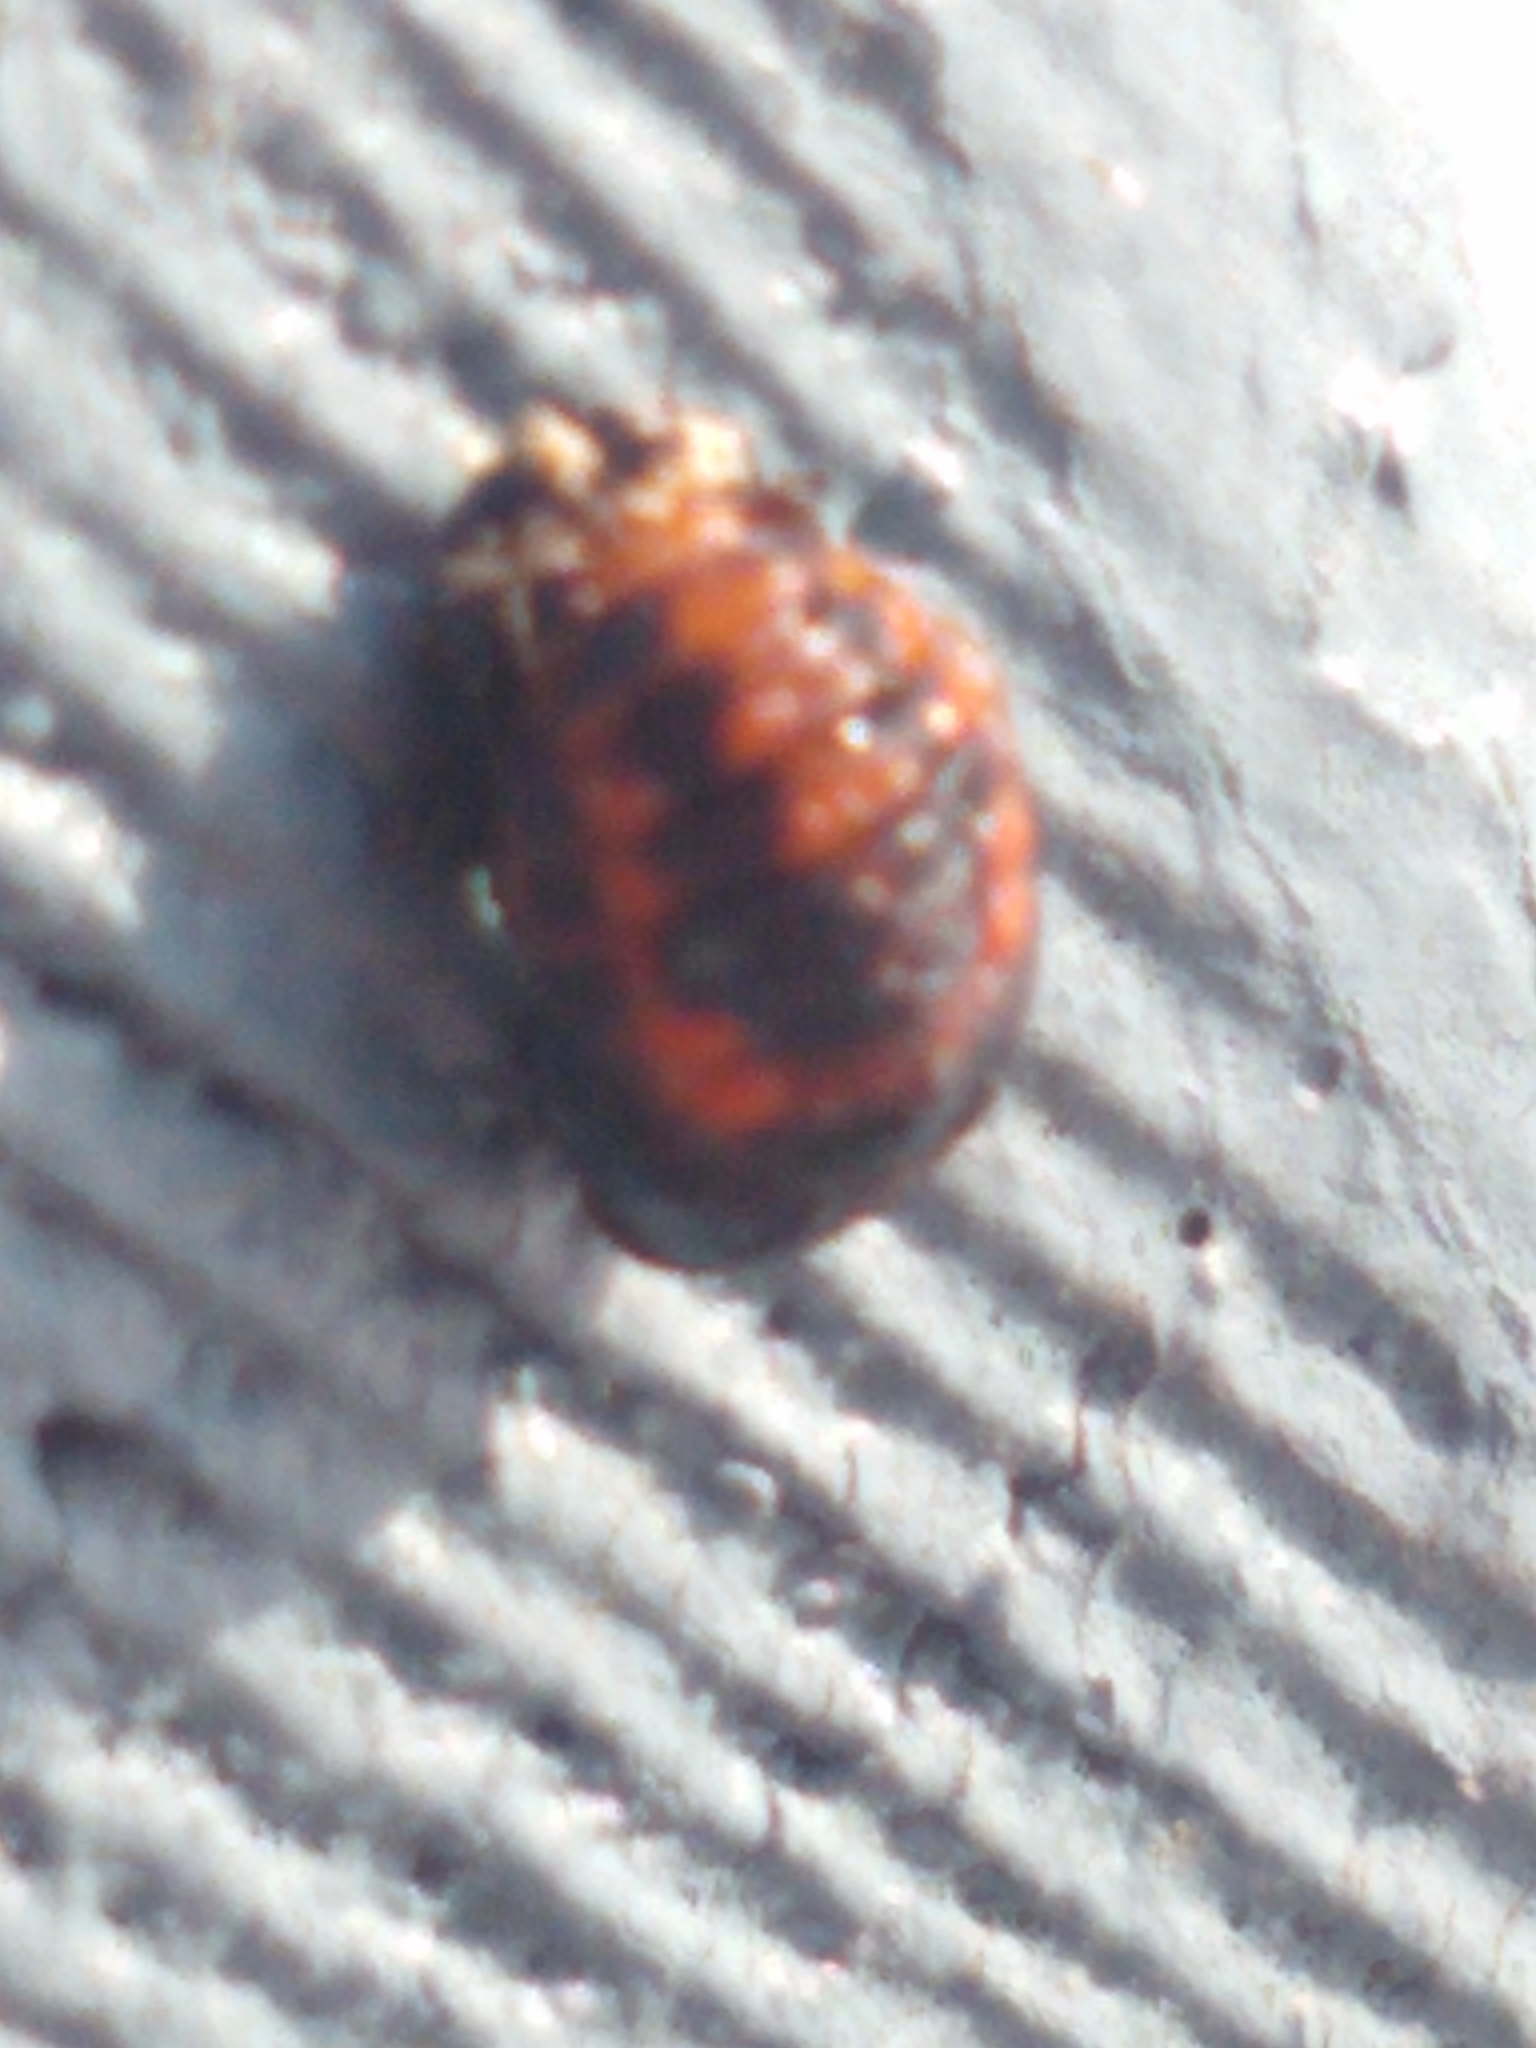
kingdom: Animalia
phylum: Arthropoda
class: Insecta
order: Coleoptera
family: Coccinellidae
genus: Harmonia
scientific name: Harmonia axyridis
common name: Harlequin ladybird
